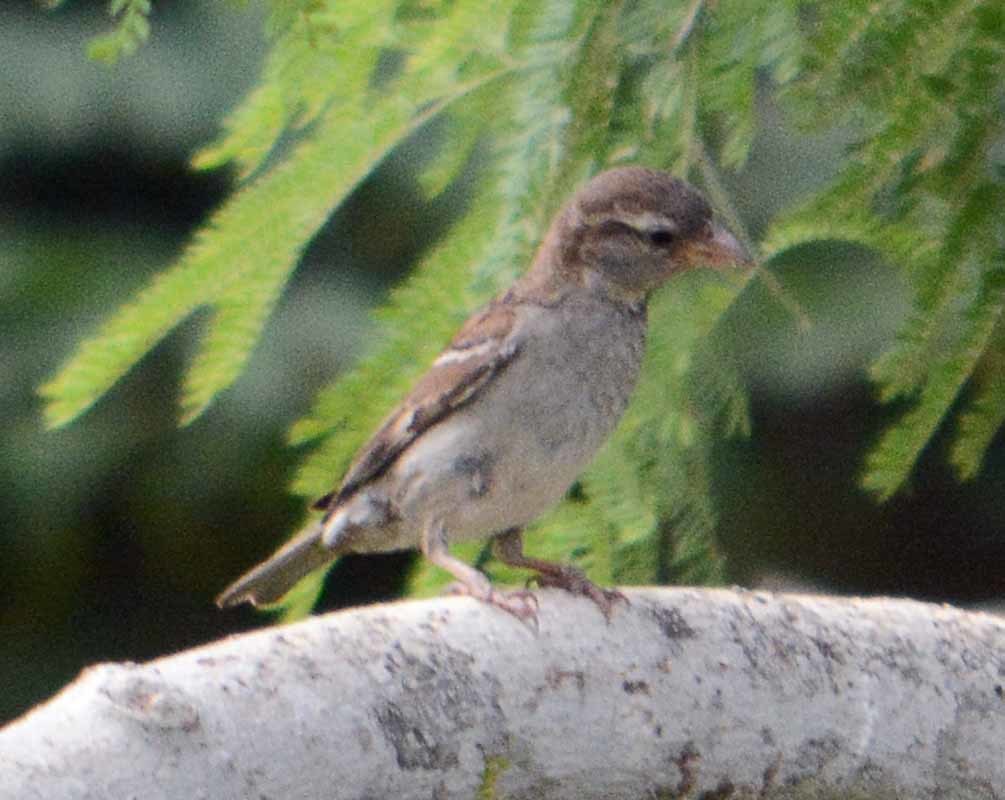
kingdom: Animalia
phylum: Chordata
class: Aves
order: Passeriformes
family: Passeridae
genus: Passer
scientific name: Passer domesticus
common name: House sparrow
